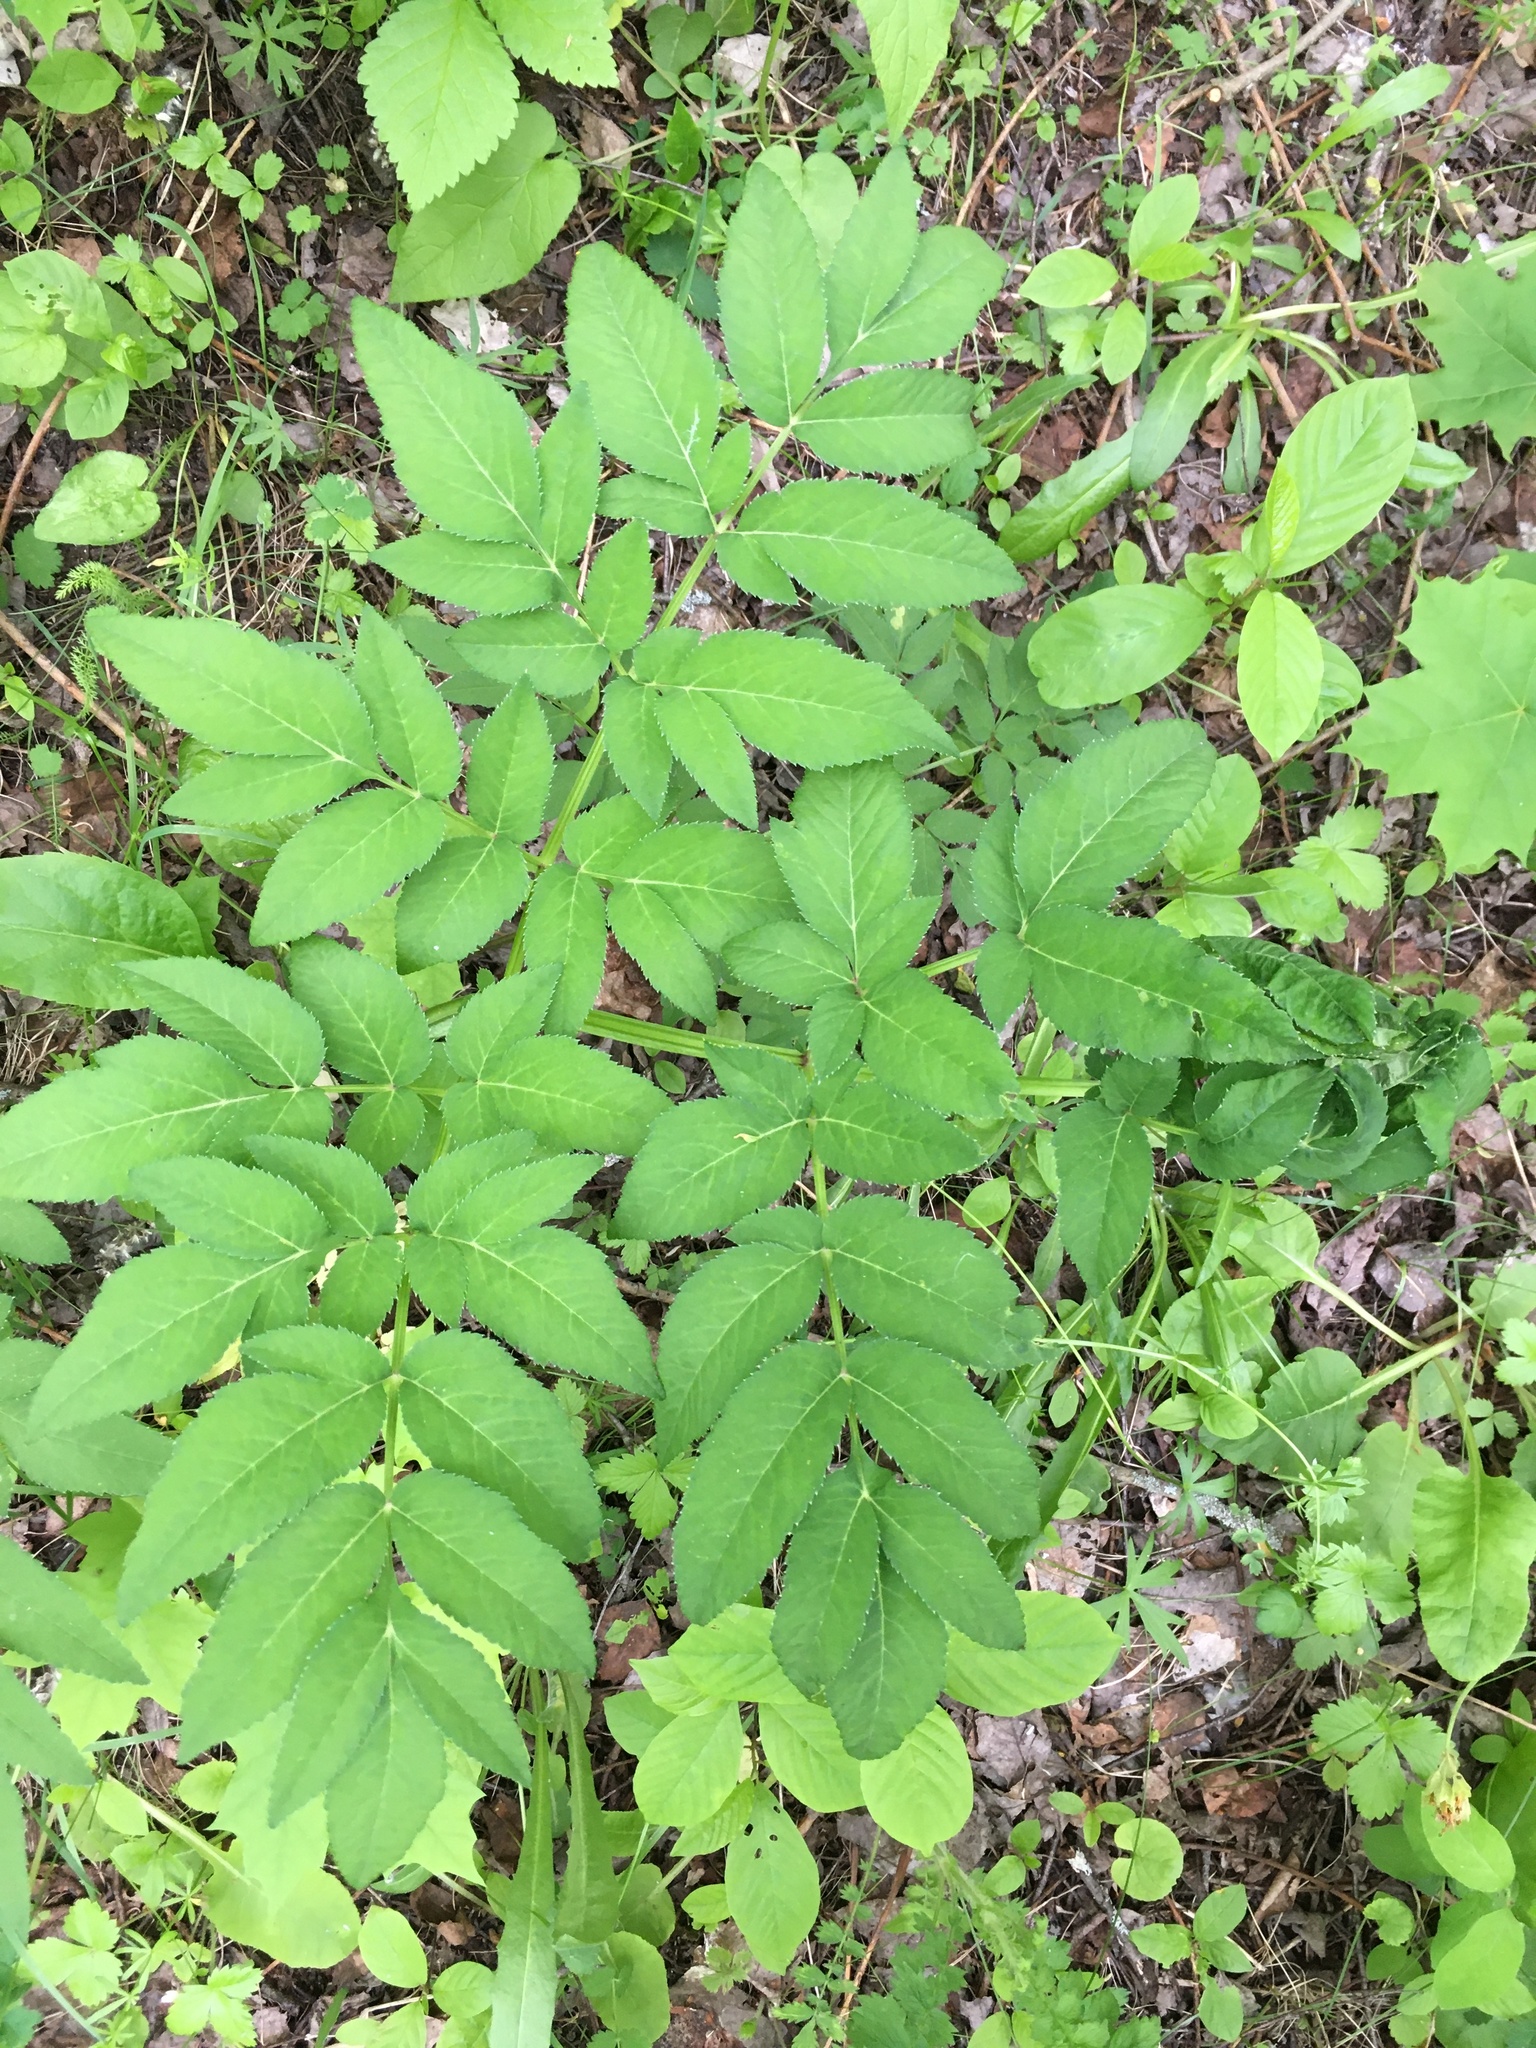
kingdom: Plantae
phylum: Tracheophyta
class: Magnoliopsida
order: Apiales
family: Apiaceae
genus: Angelica
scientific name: Angelica sylvestris
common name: Wild angelica
